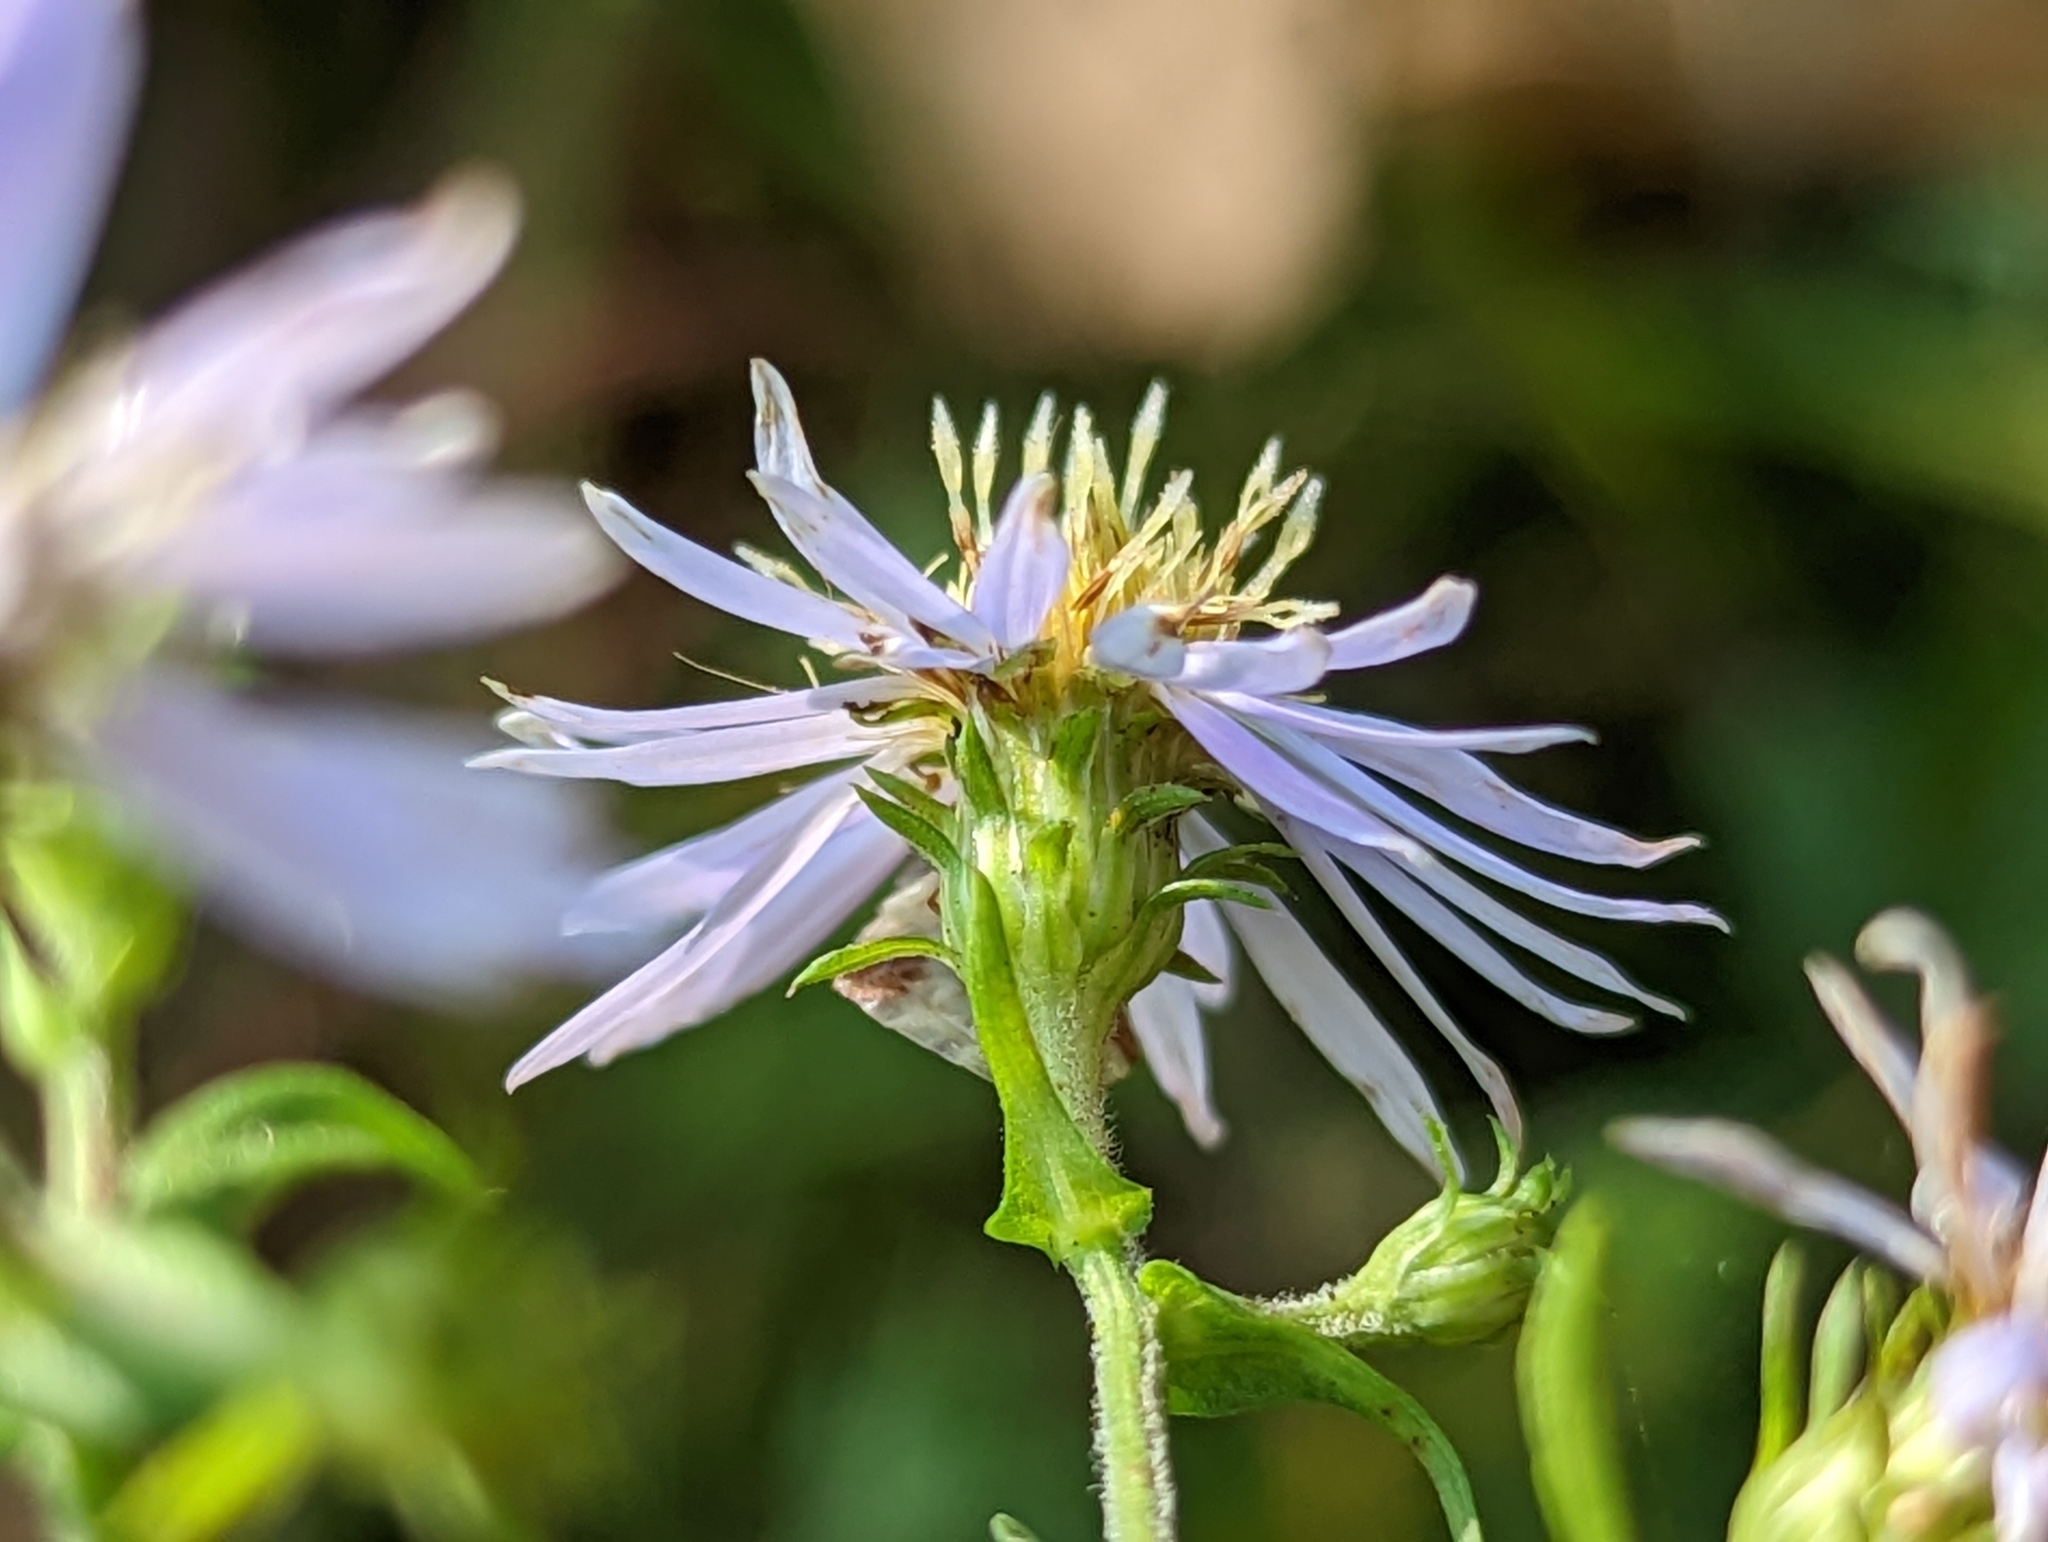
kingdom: Plantae
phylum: Tracheophyta
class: Magnoliopsida
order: Asterales
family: Asteraceae
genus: Symphyotrichum
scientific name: Symphyotrichum prenanthoides
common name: Crooked-stem aster
